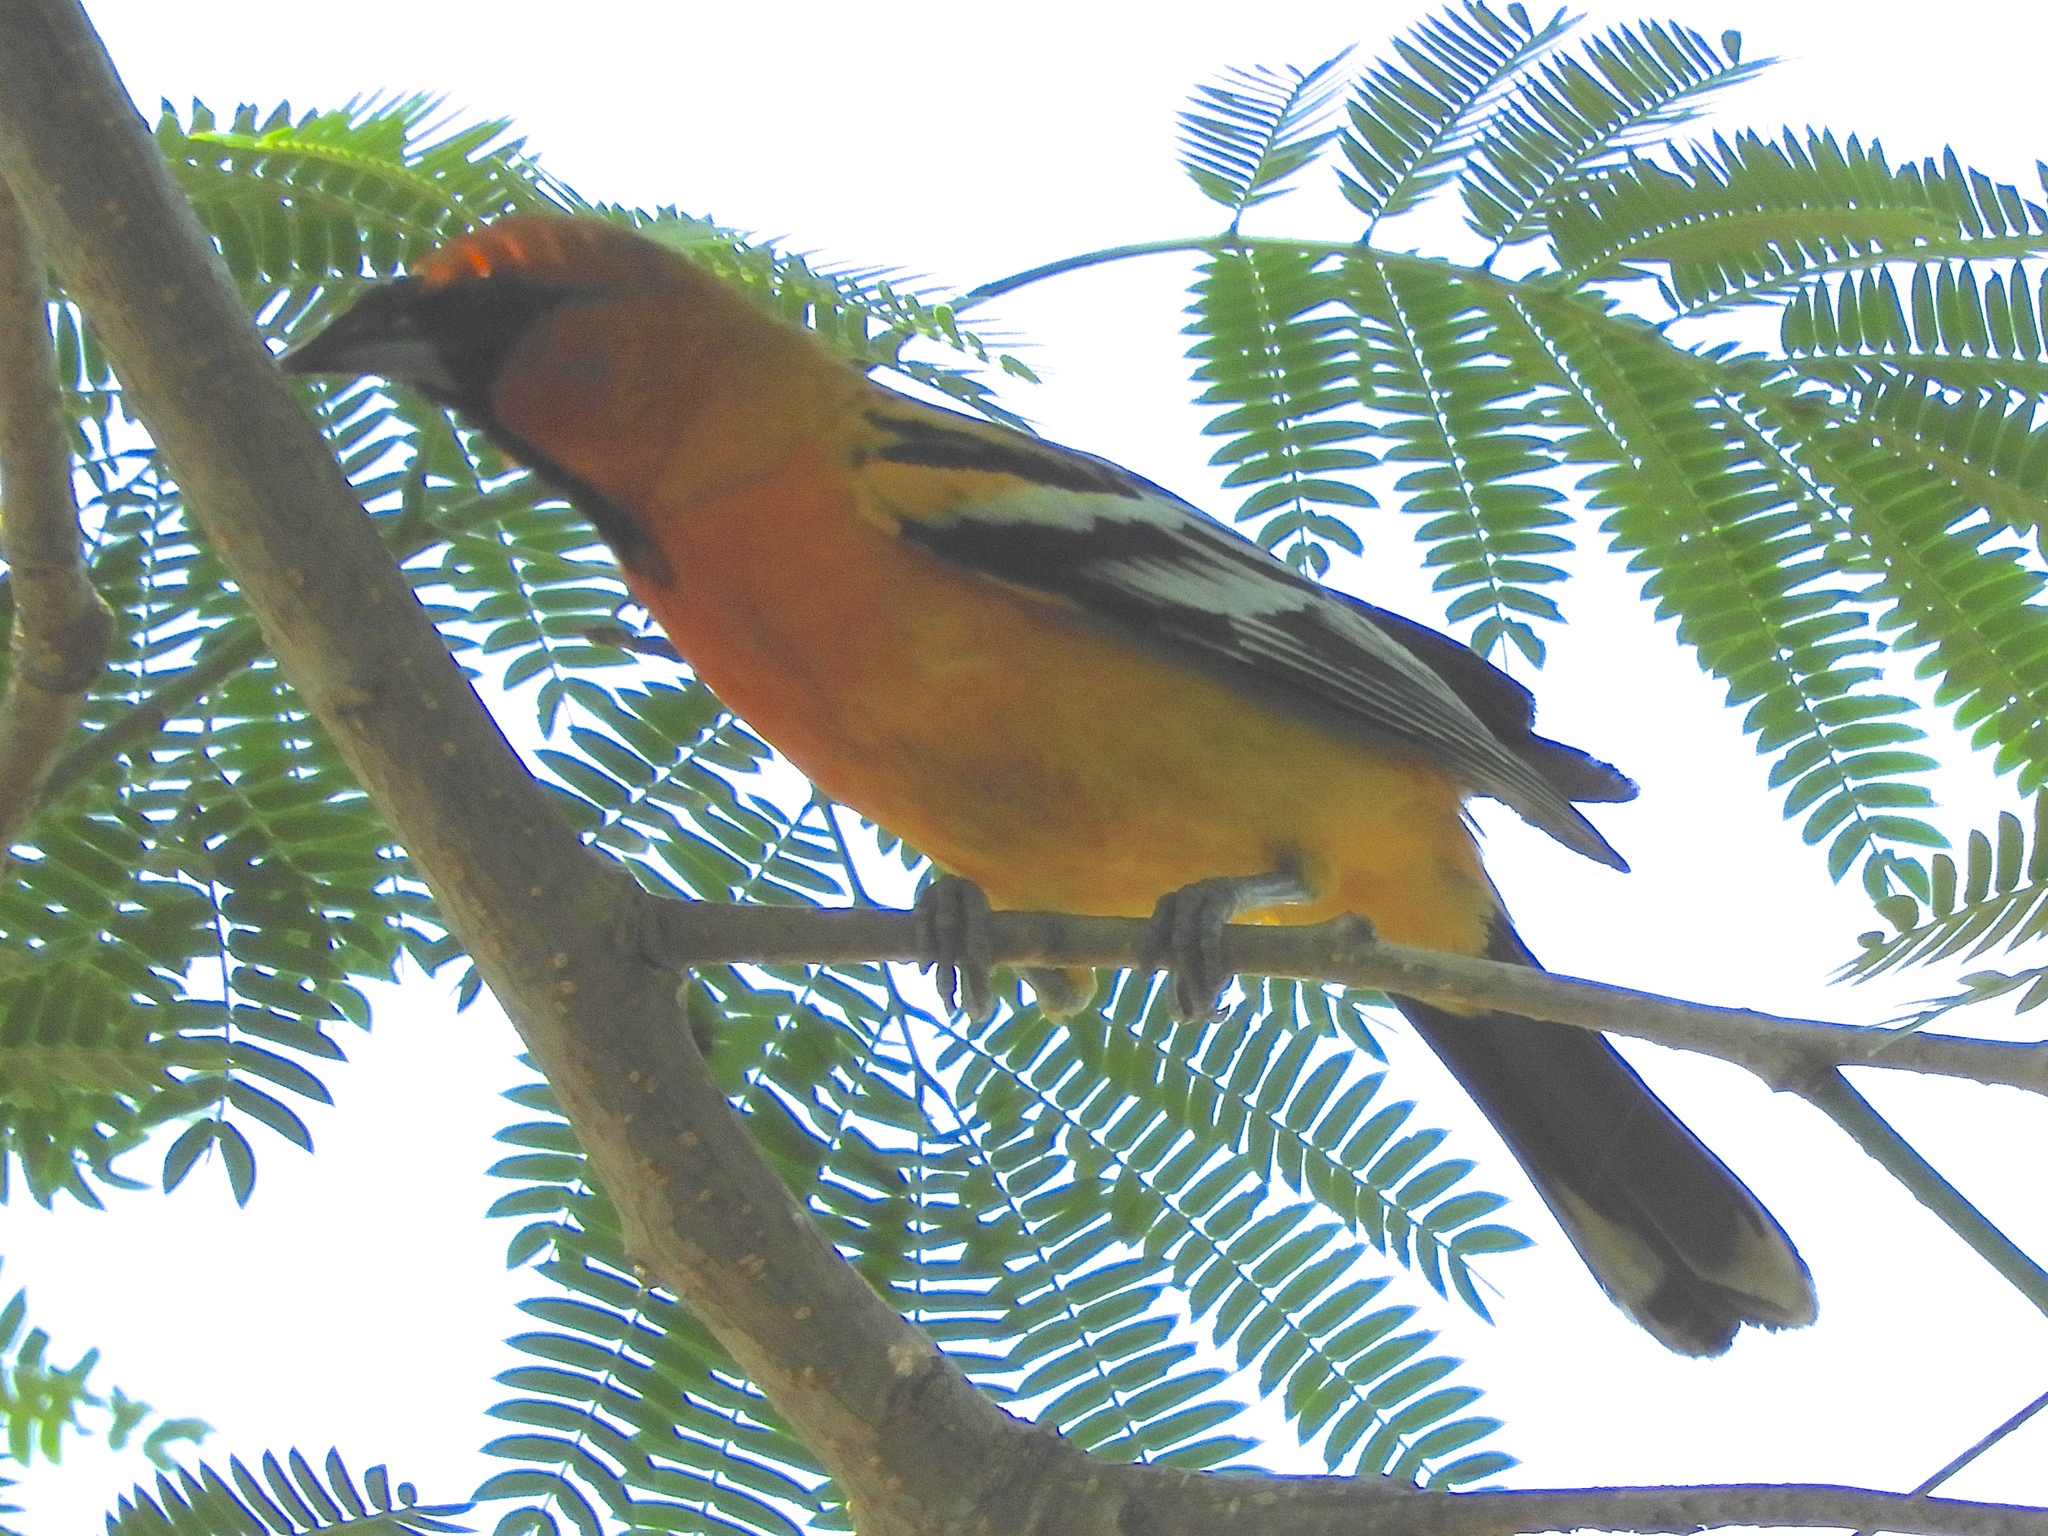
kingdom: Animalia
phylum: Chordata
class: Aves
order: Passeriformes
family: Icteridae
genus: Icterus
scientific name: Icterus pustulatus
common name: Streak-backed oriole
